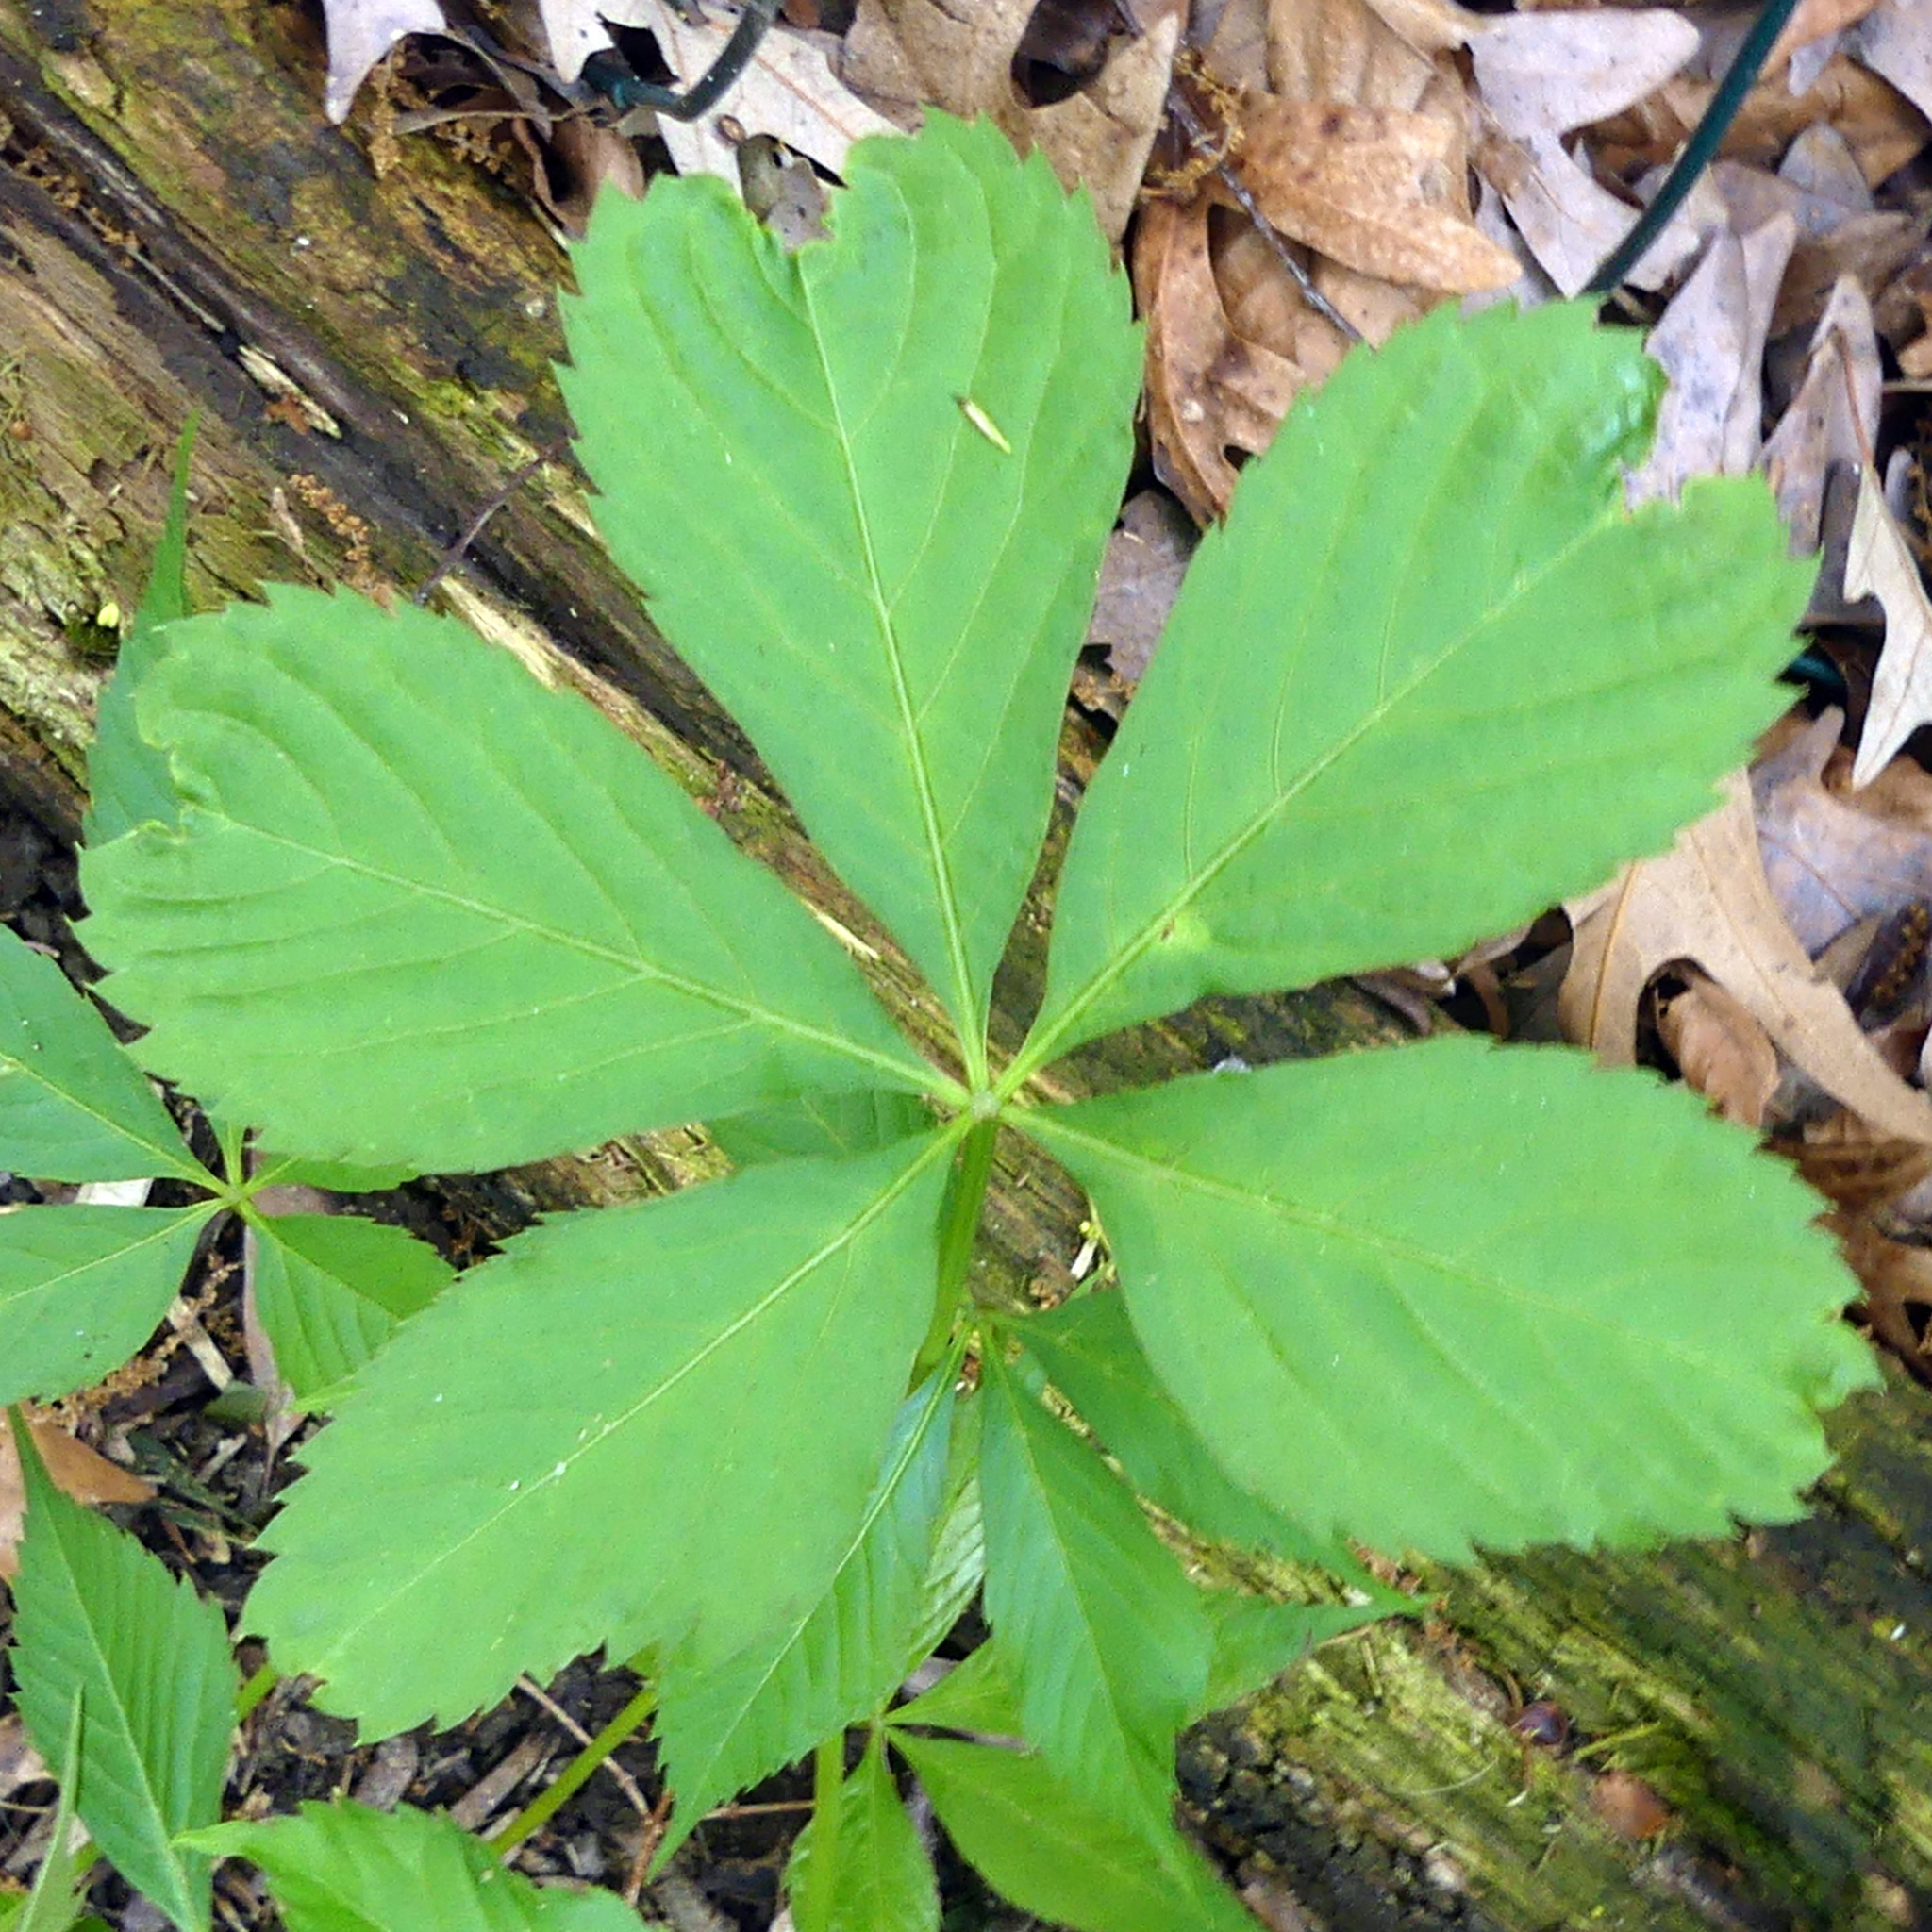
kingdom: Plantae
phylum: Tracheophyta
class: Magnoliopsida
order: Vitales
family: Vitaceae
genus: Parthenocissus
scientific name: Parthenocissus quinquefolia
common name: Virginia-creeper
